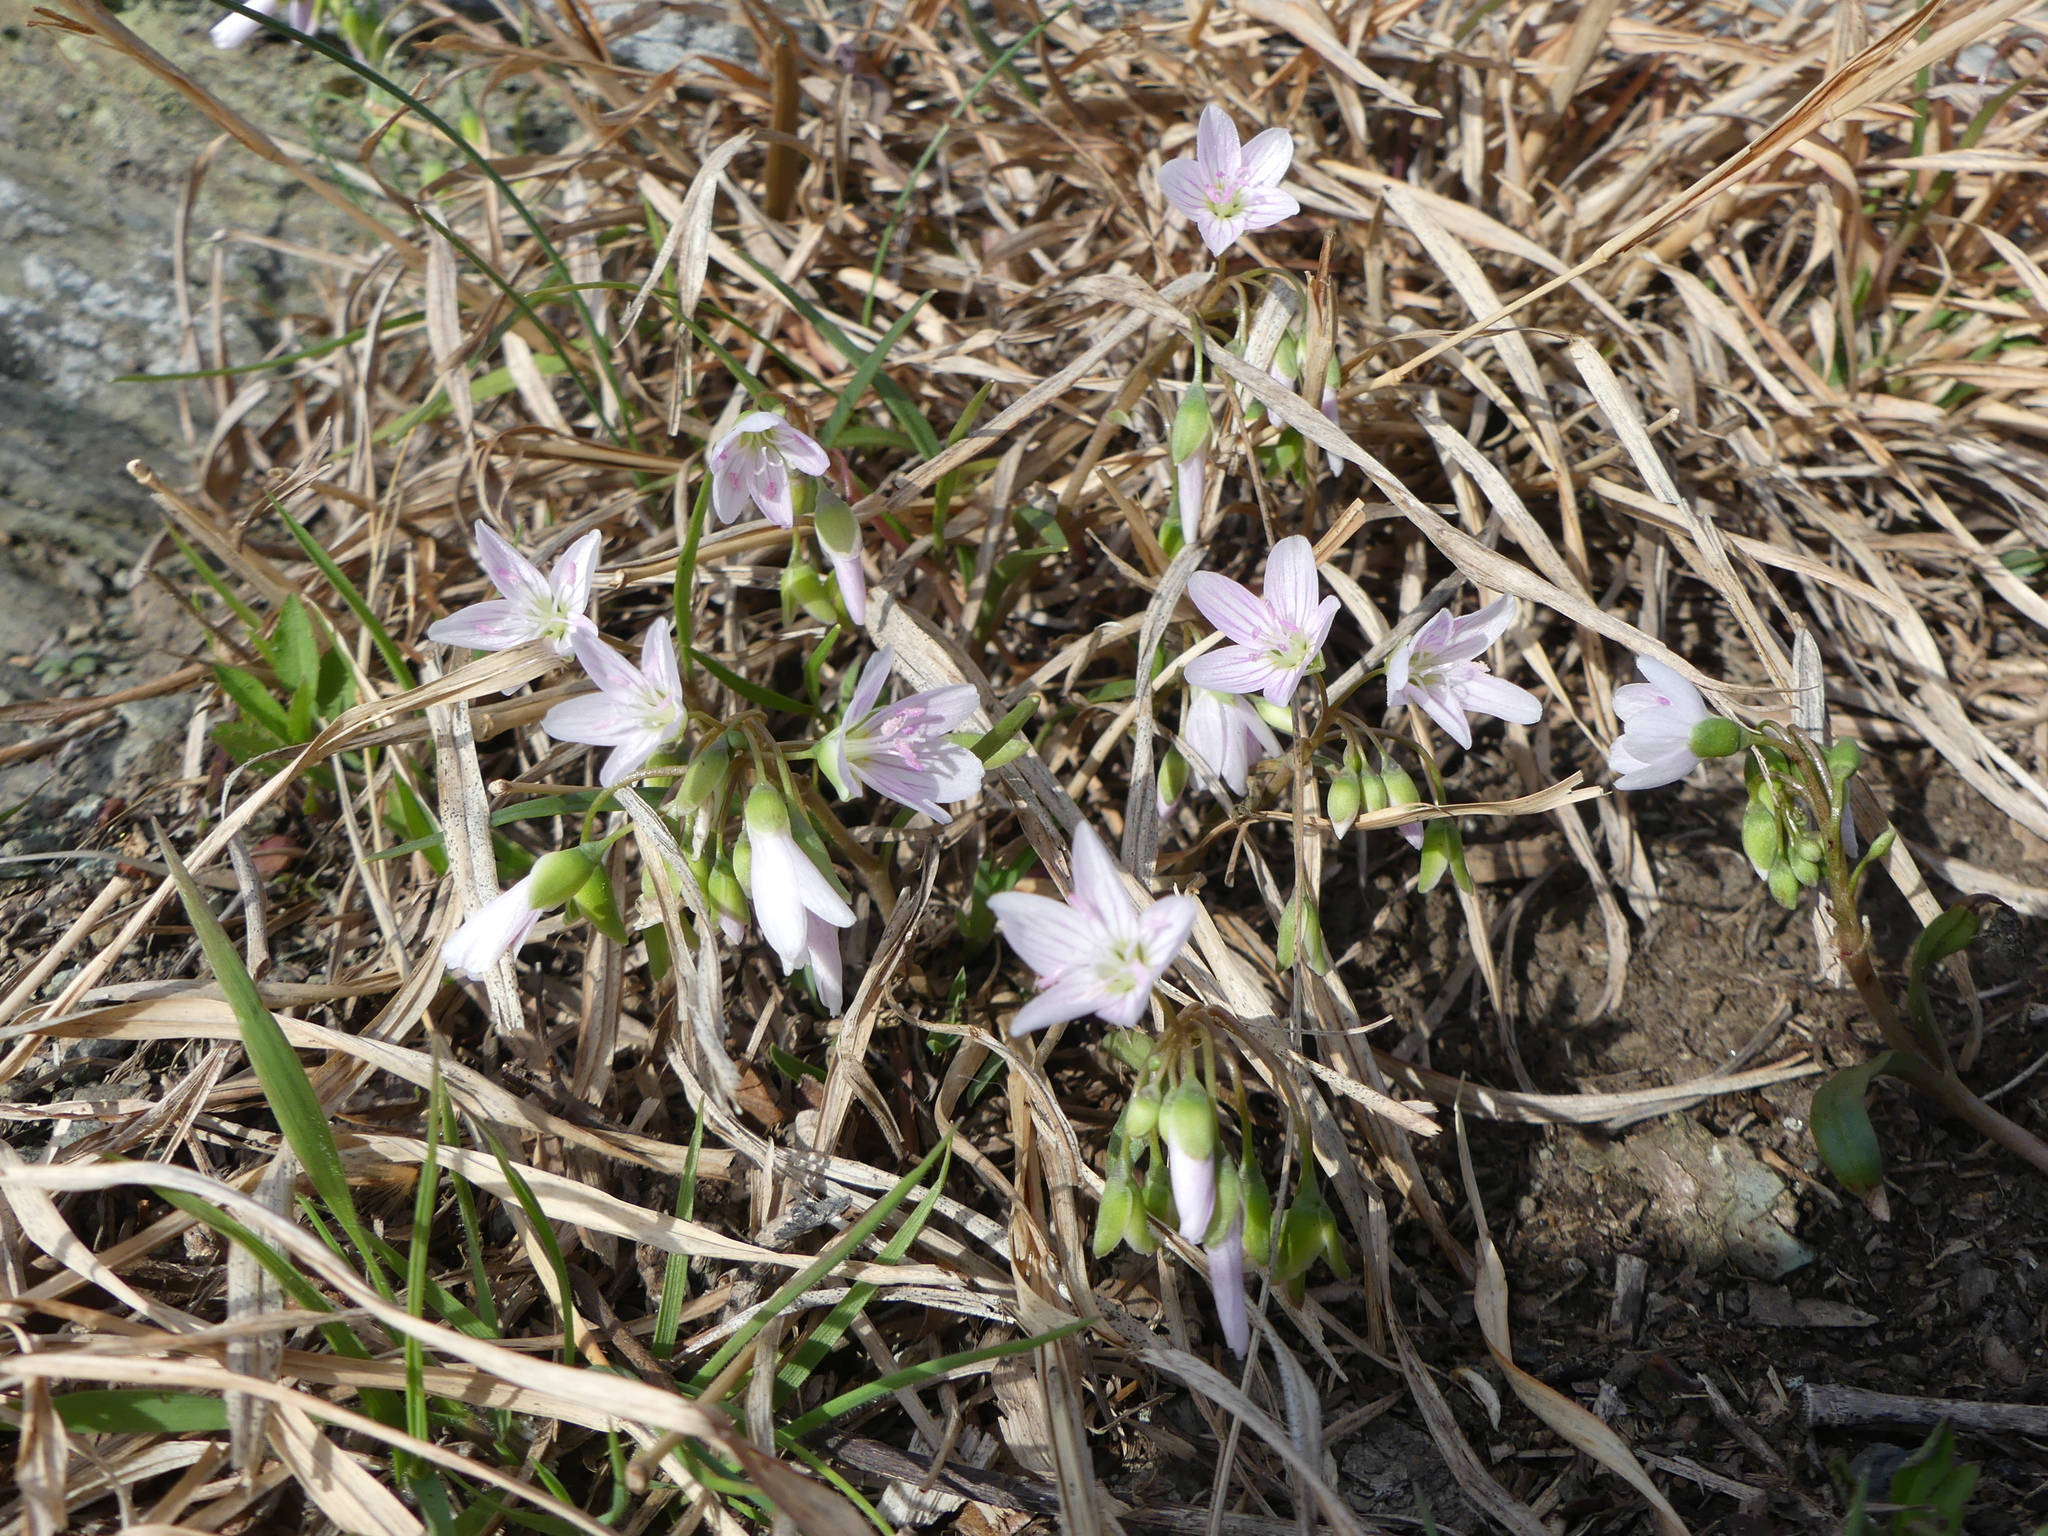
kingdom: Plantae
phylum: Tracheophyta
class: Magnoliopsida
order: Caryophyllales
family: Montiaceae
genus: Claytonia
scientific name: Claytonia virginica
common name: Virginia springbeauty
